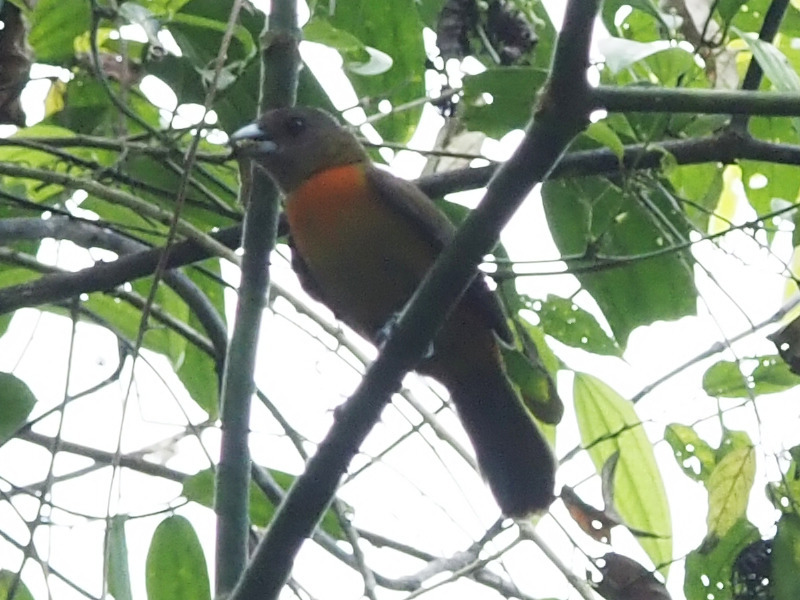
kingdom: Animalia
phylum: Chordata
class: Aves
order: Passeriformes
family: Thraupidae
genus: Ramphocelus
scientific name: Ramphocelus passerinii
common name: Passerini's tanager
